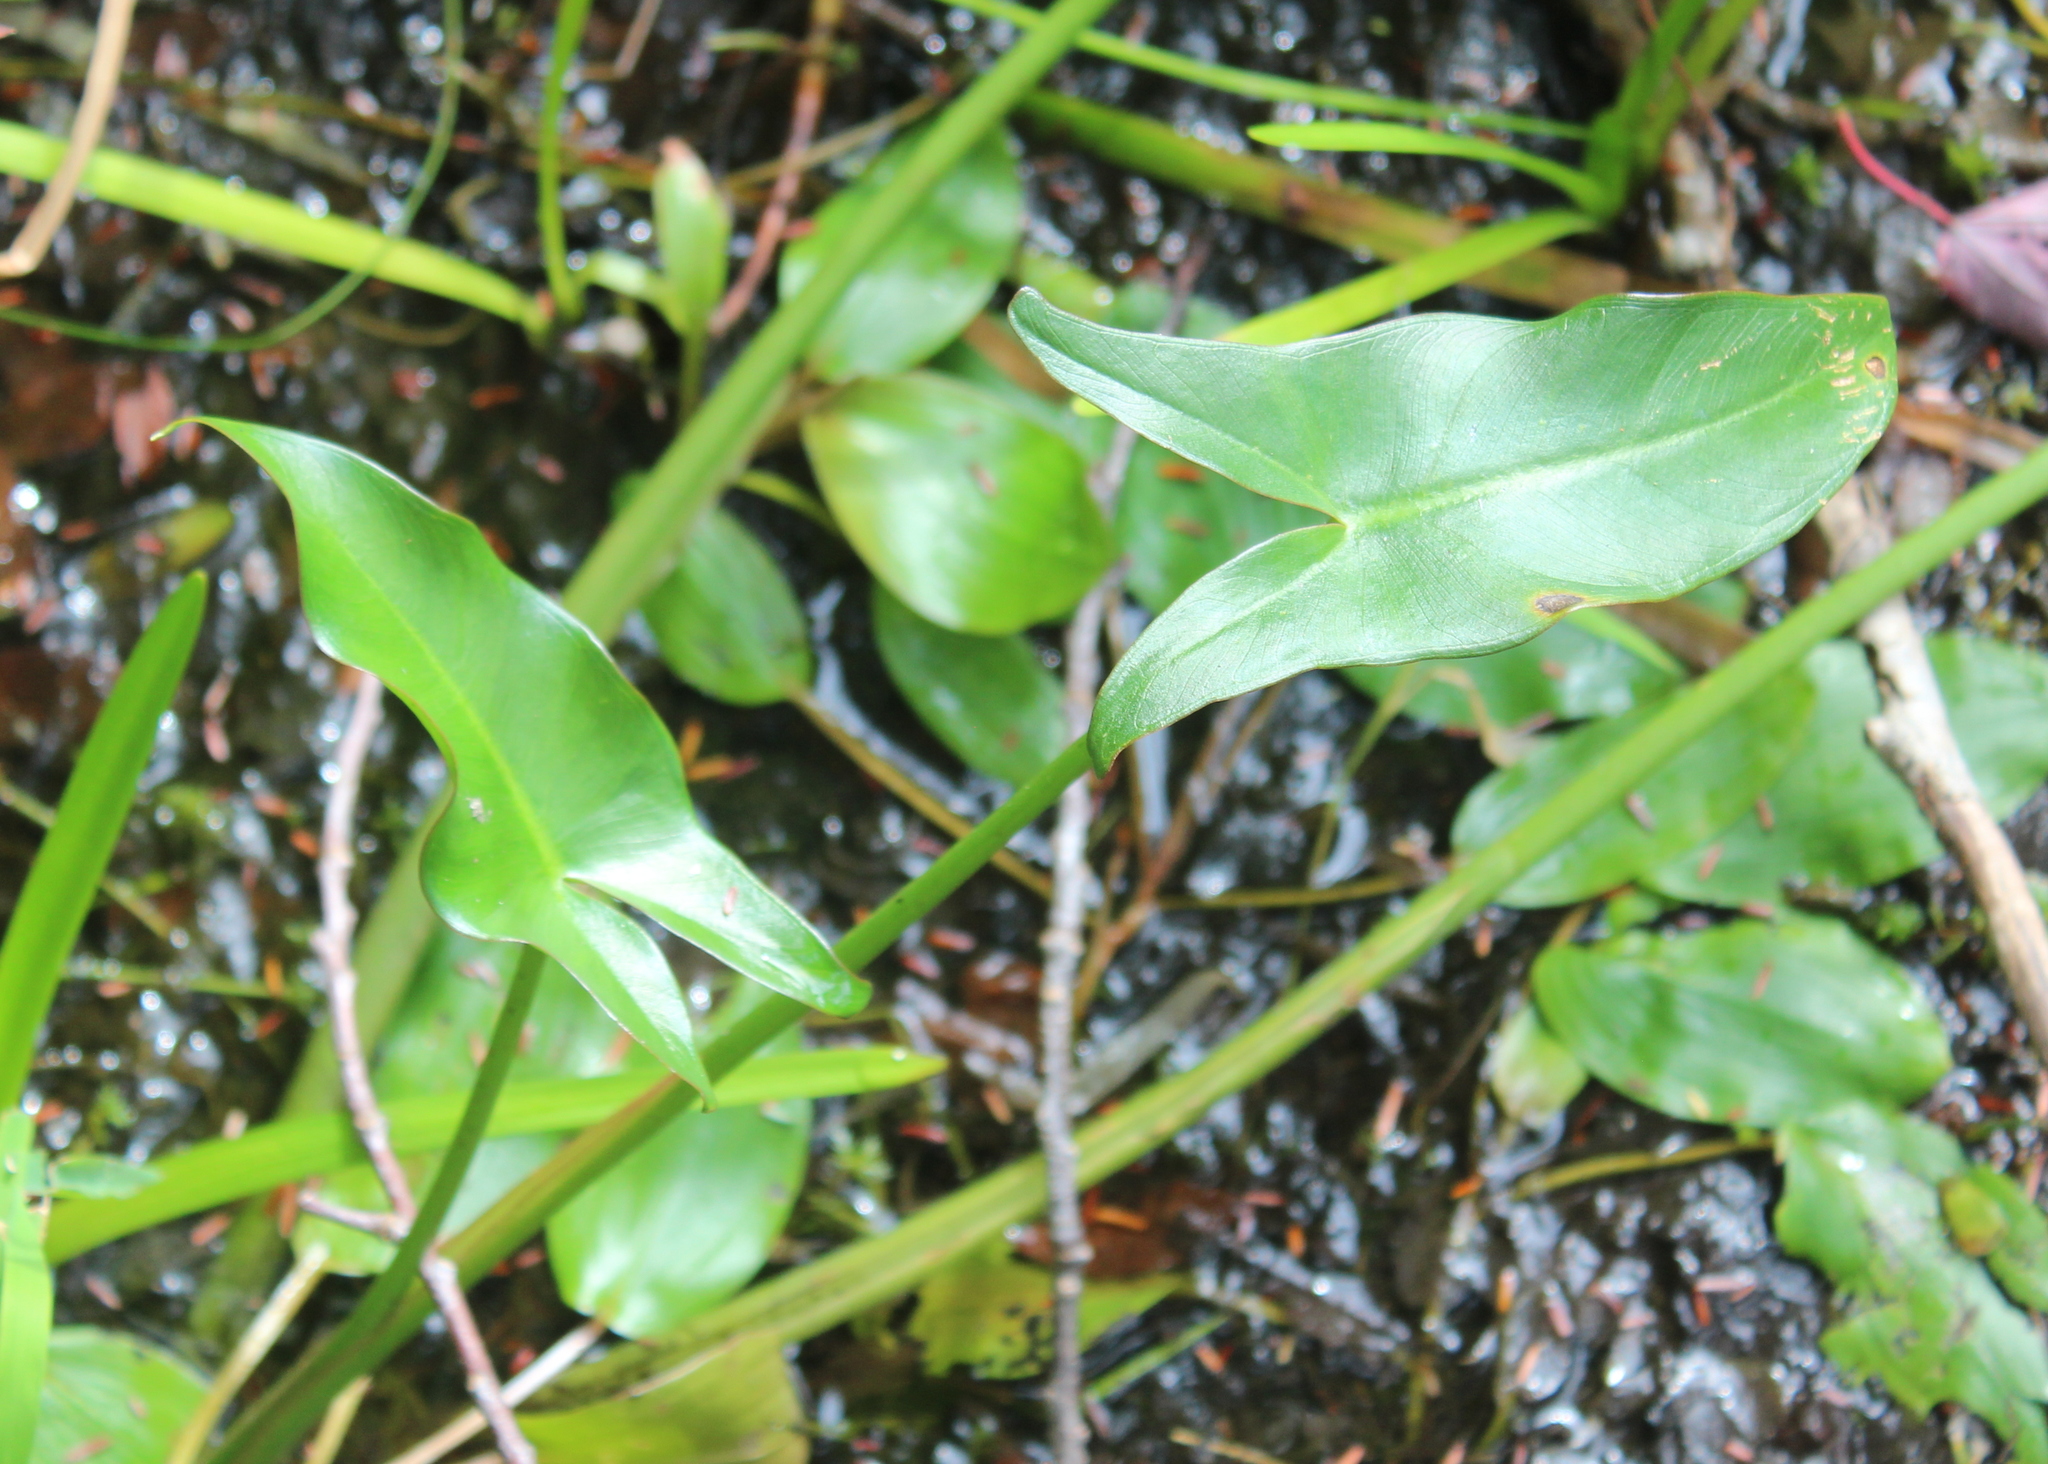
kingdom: Plantae
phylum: Tracheophyta
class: Liliopsida
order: Alismatales
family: Araceae
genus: Peltandra
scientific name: Peltandra virginica
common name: Arrow arum
